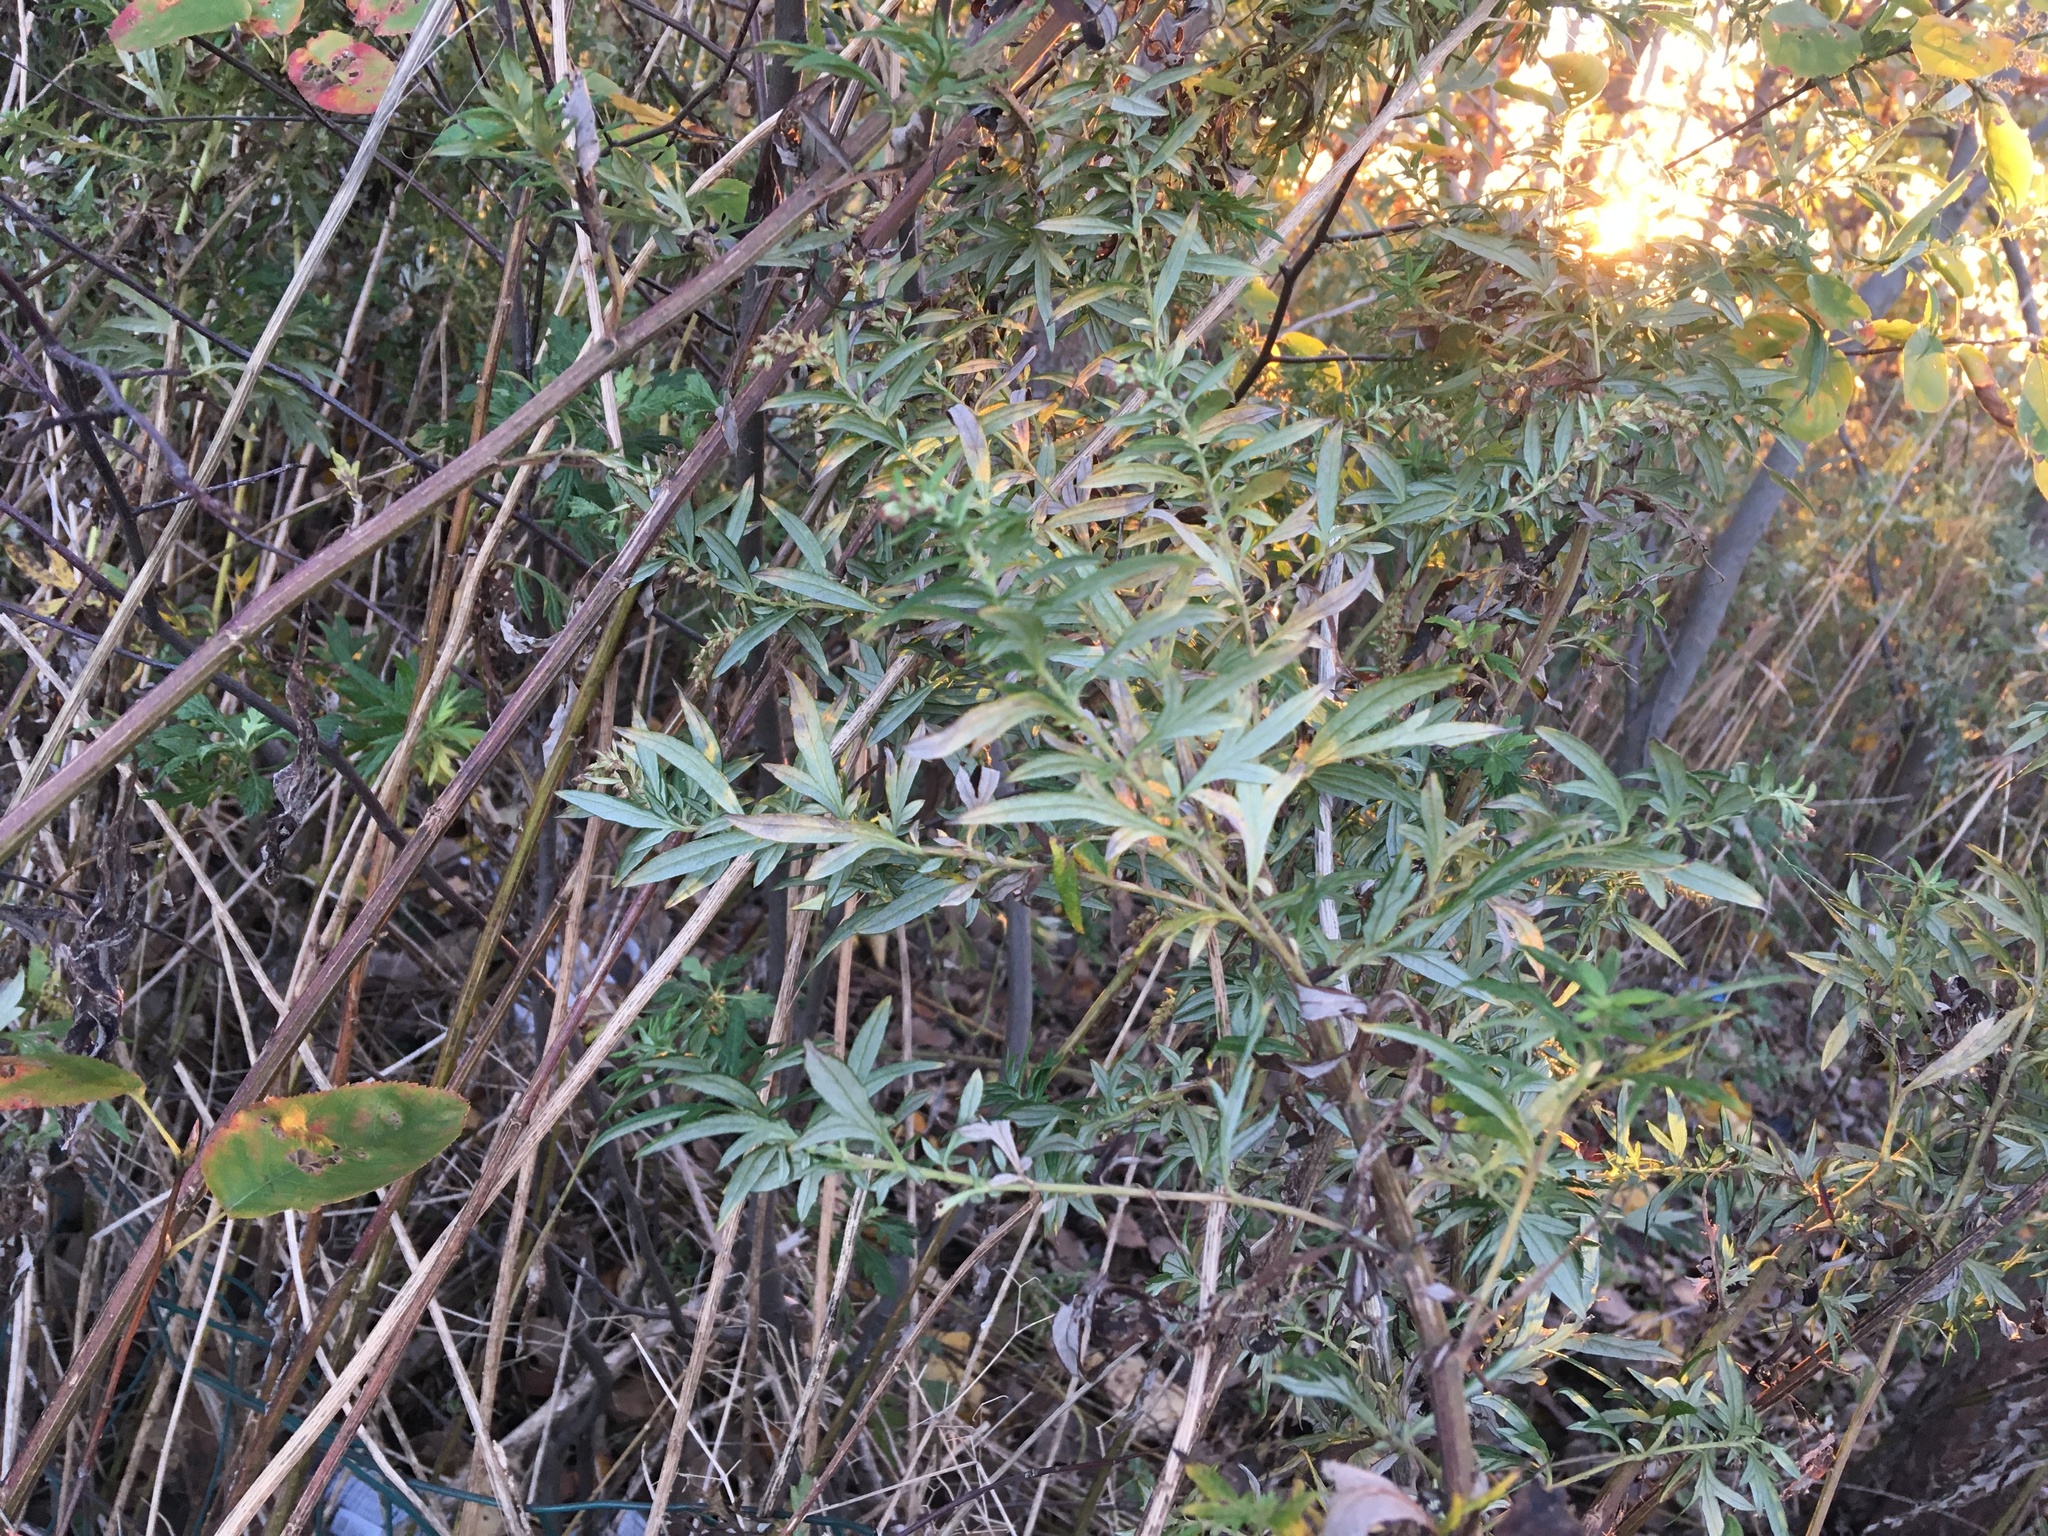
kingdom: Plantae
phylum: Tracheophyta
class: Magnoliopsida
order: Asterales
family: Asteraceae
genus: Artemisia
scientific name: Artemisia vulgaris
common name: Mugwort
